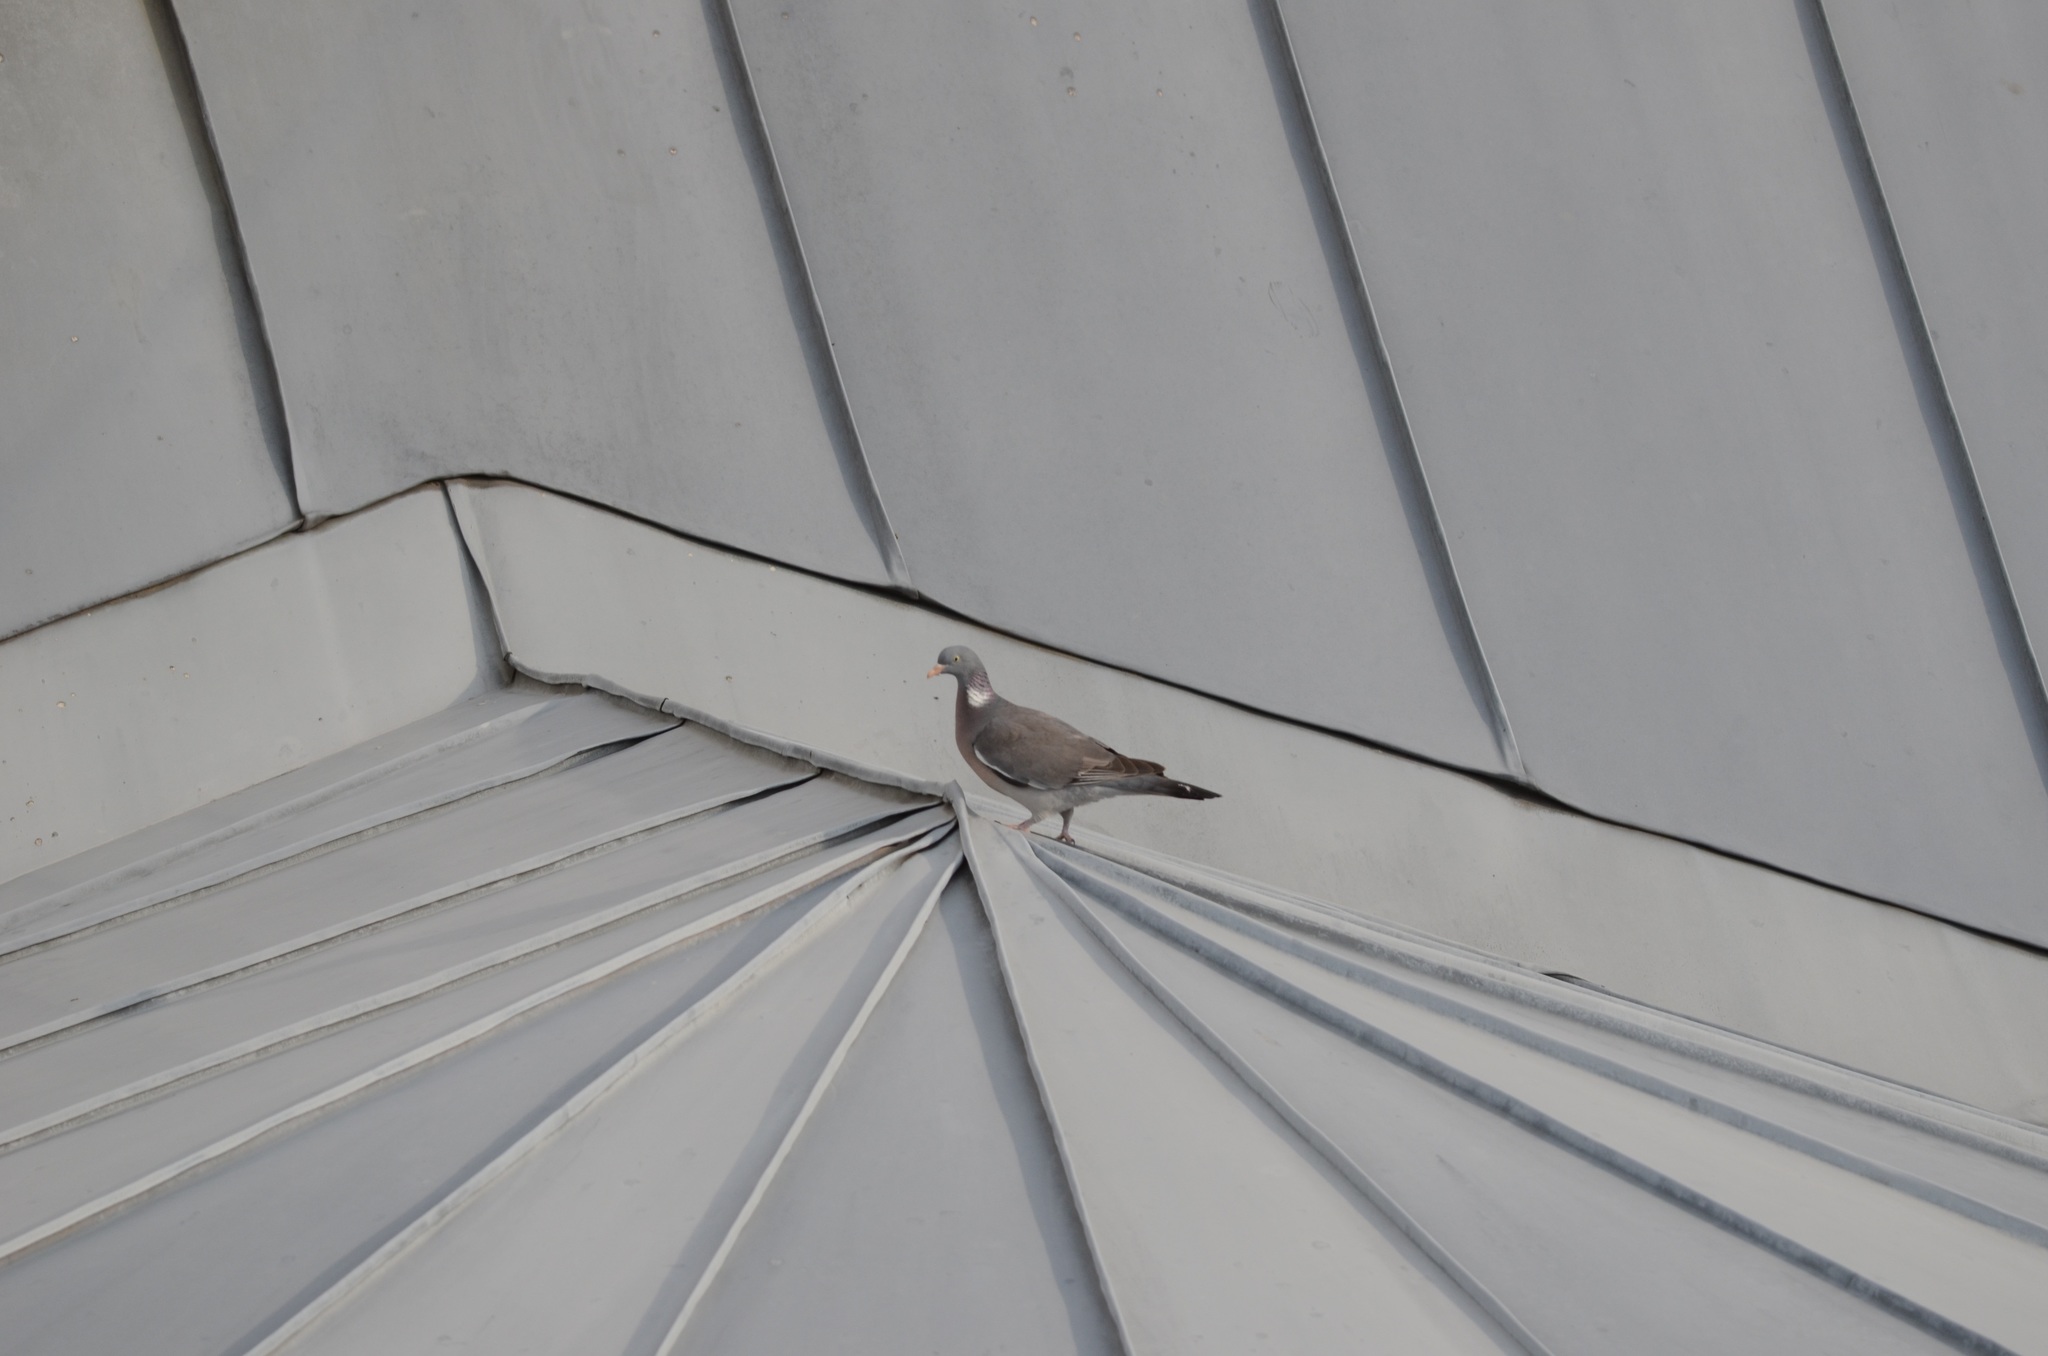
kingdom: Animalia
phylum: Chordata
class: Aves
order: Columbiformes
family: Columbidae
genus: Columba
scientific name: Columba palumbus
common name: Common wood pigeon
